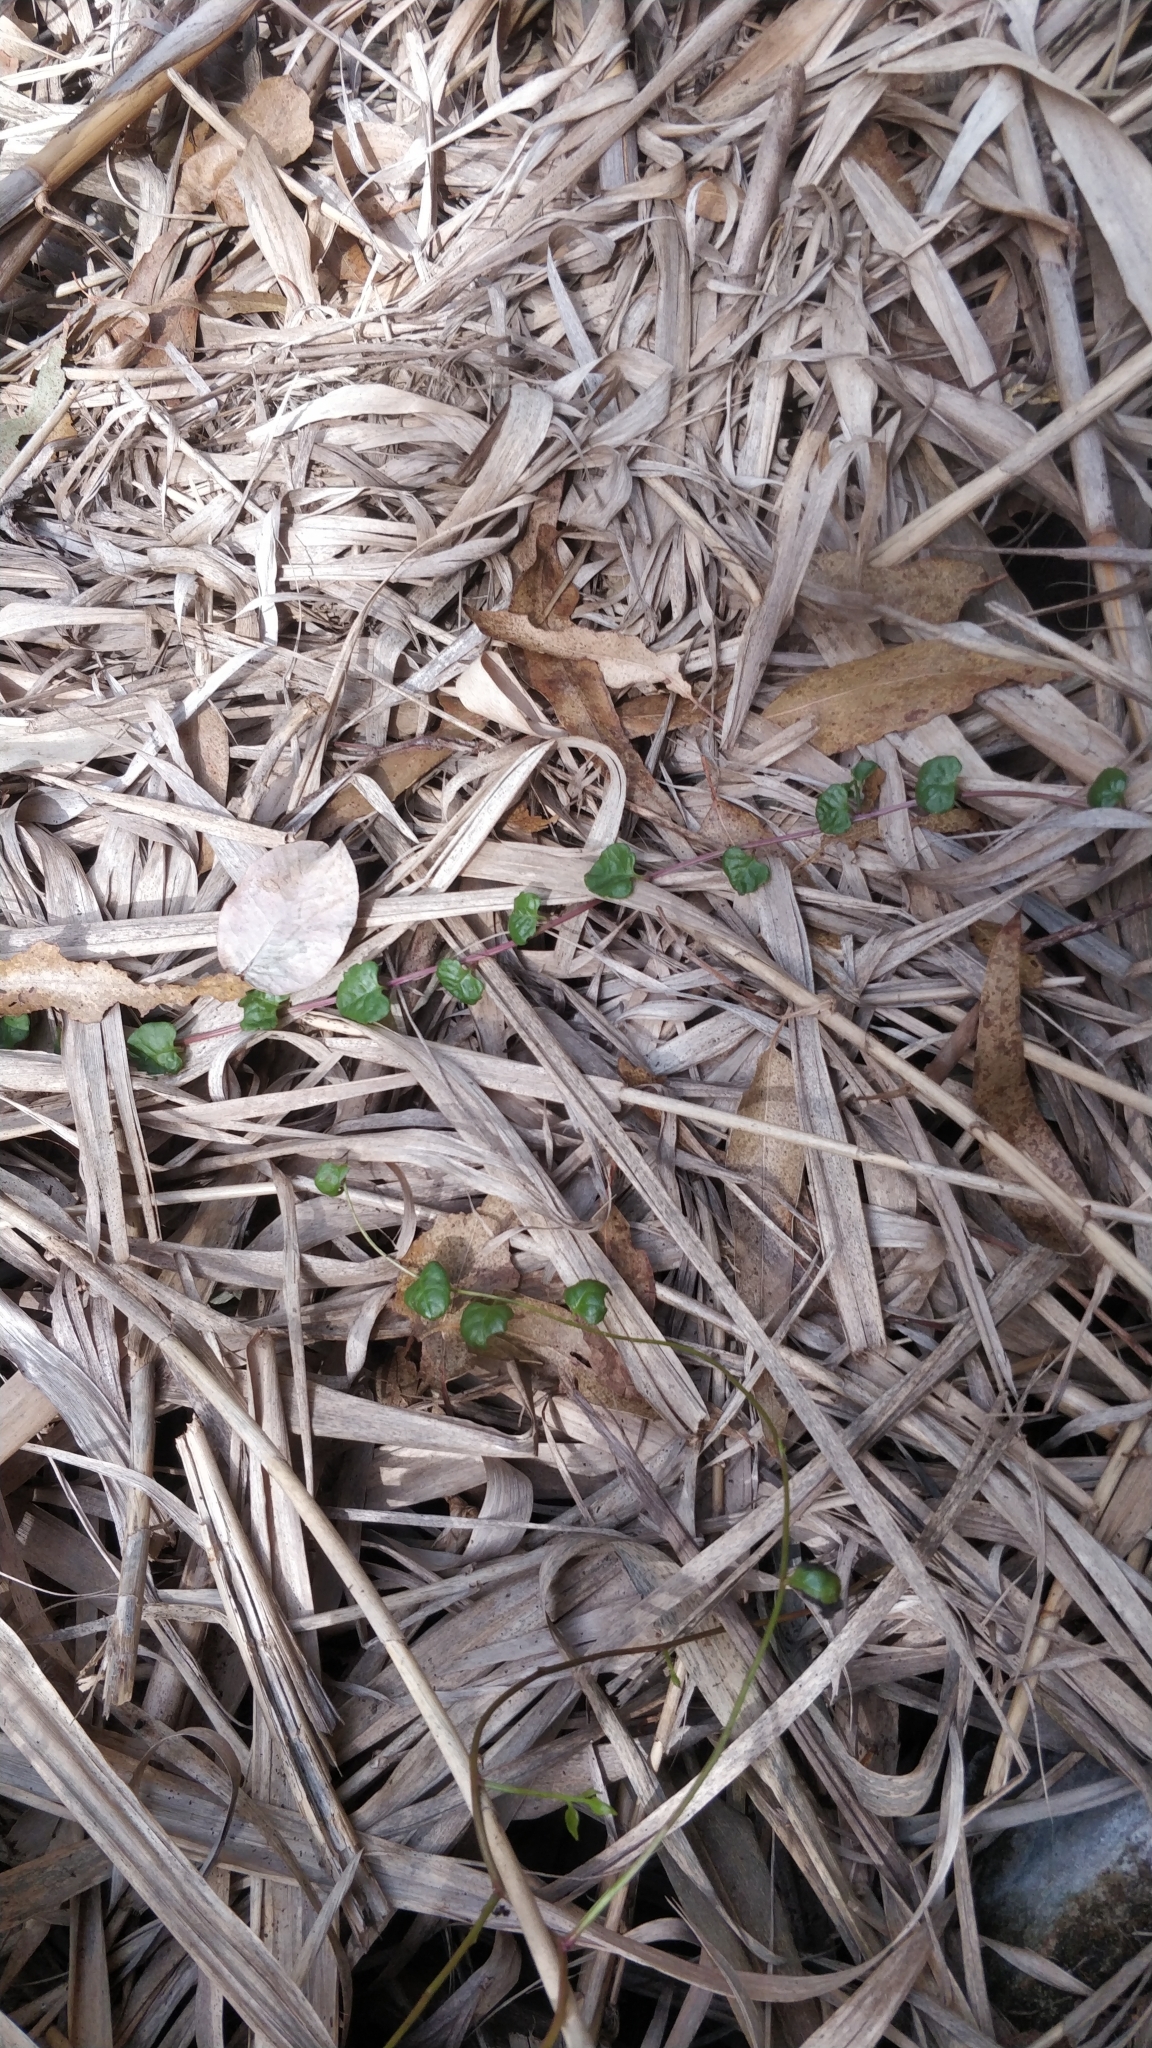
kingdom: Plantae
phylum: Tracheophyta
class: Magnoliopsida
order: Caryophyllales
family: Basellaceae
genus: Anredera
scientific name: Anredera cordifolia
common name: Heartleaf madeiravine
